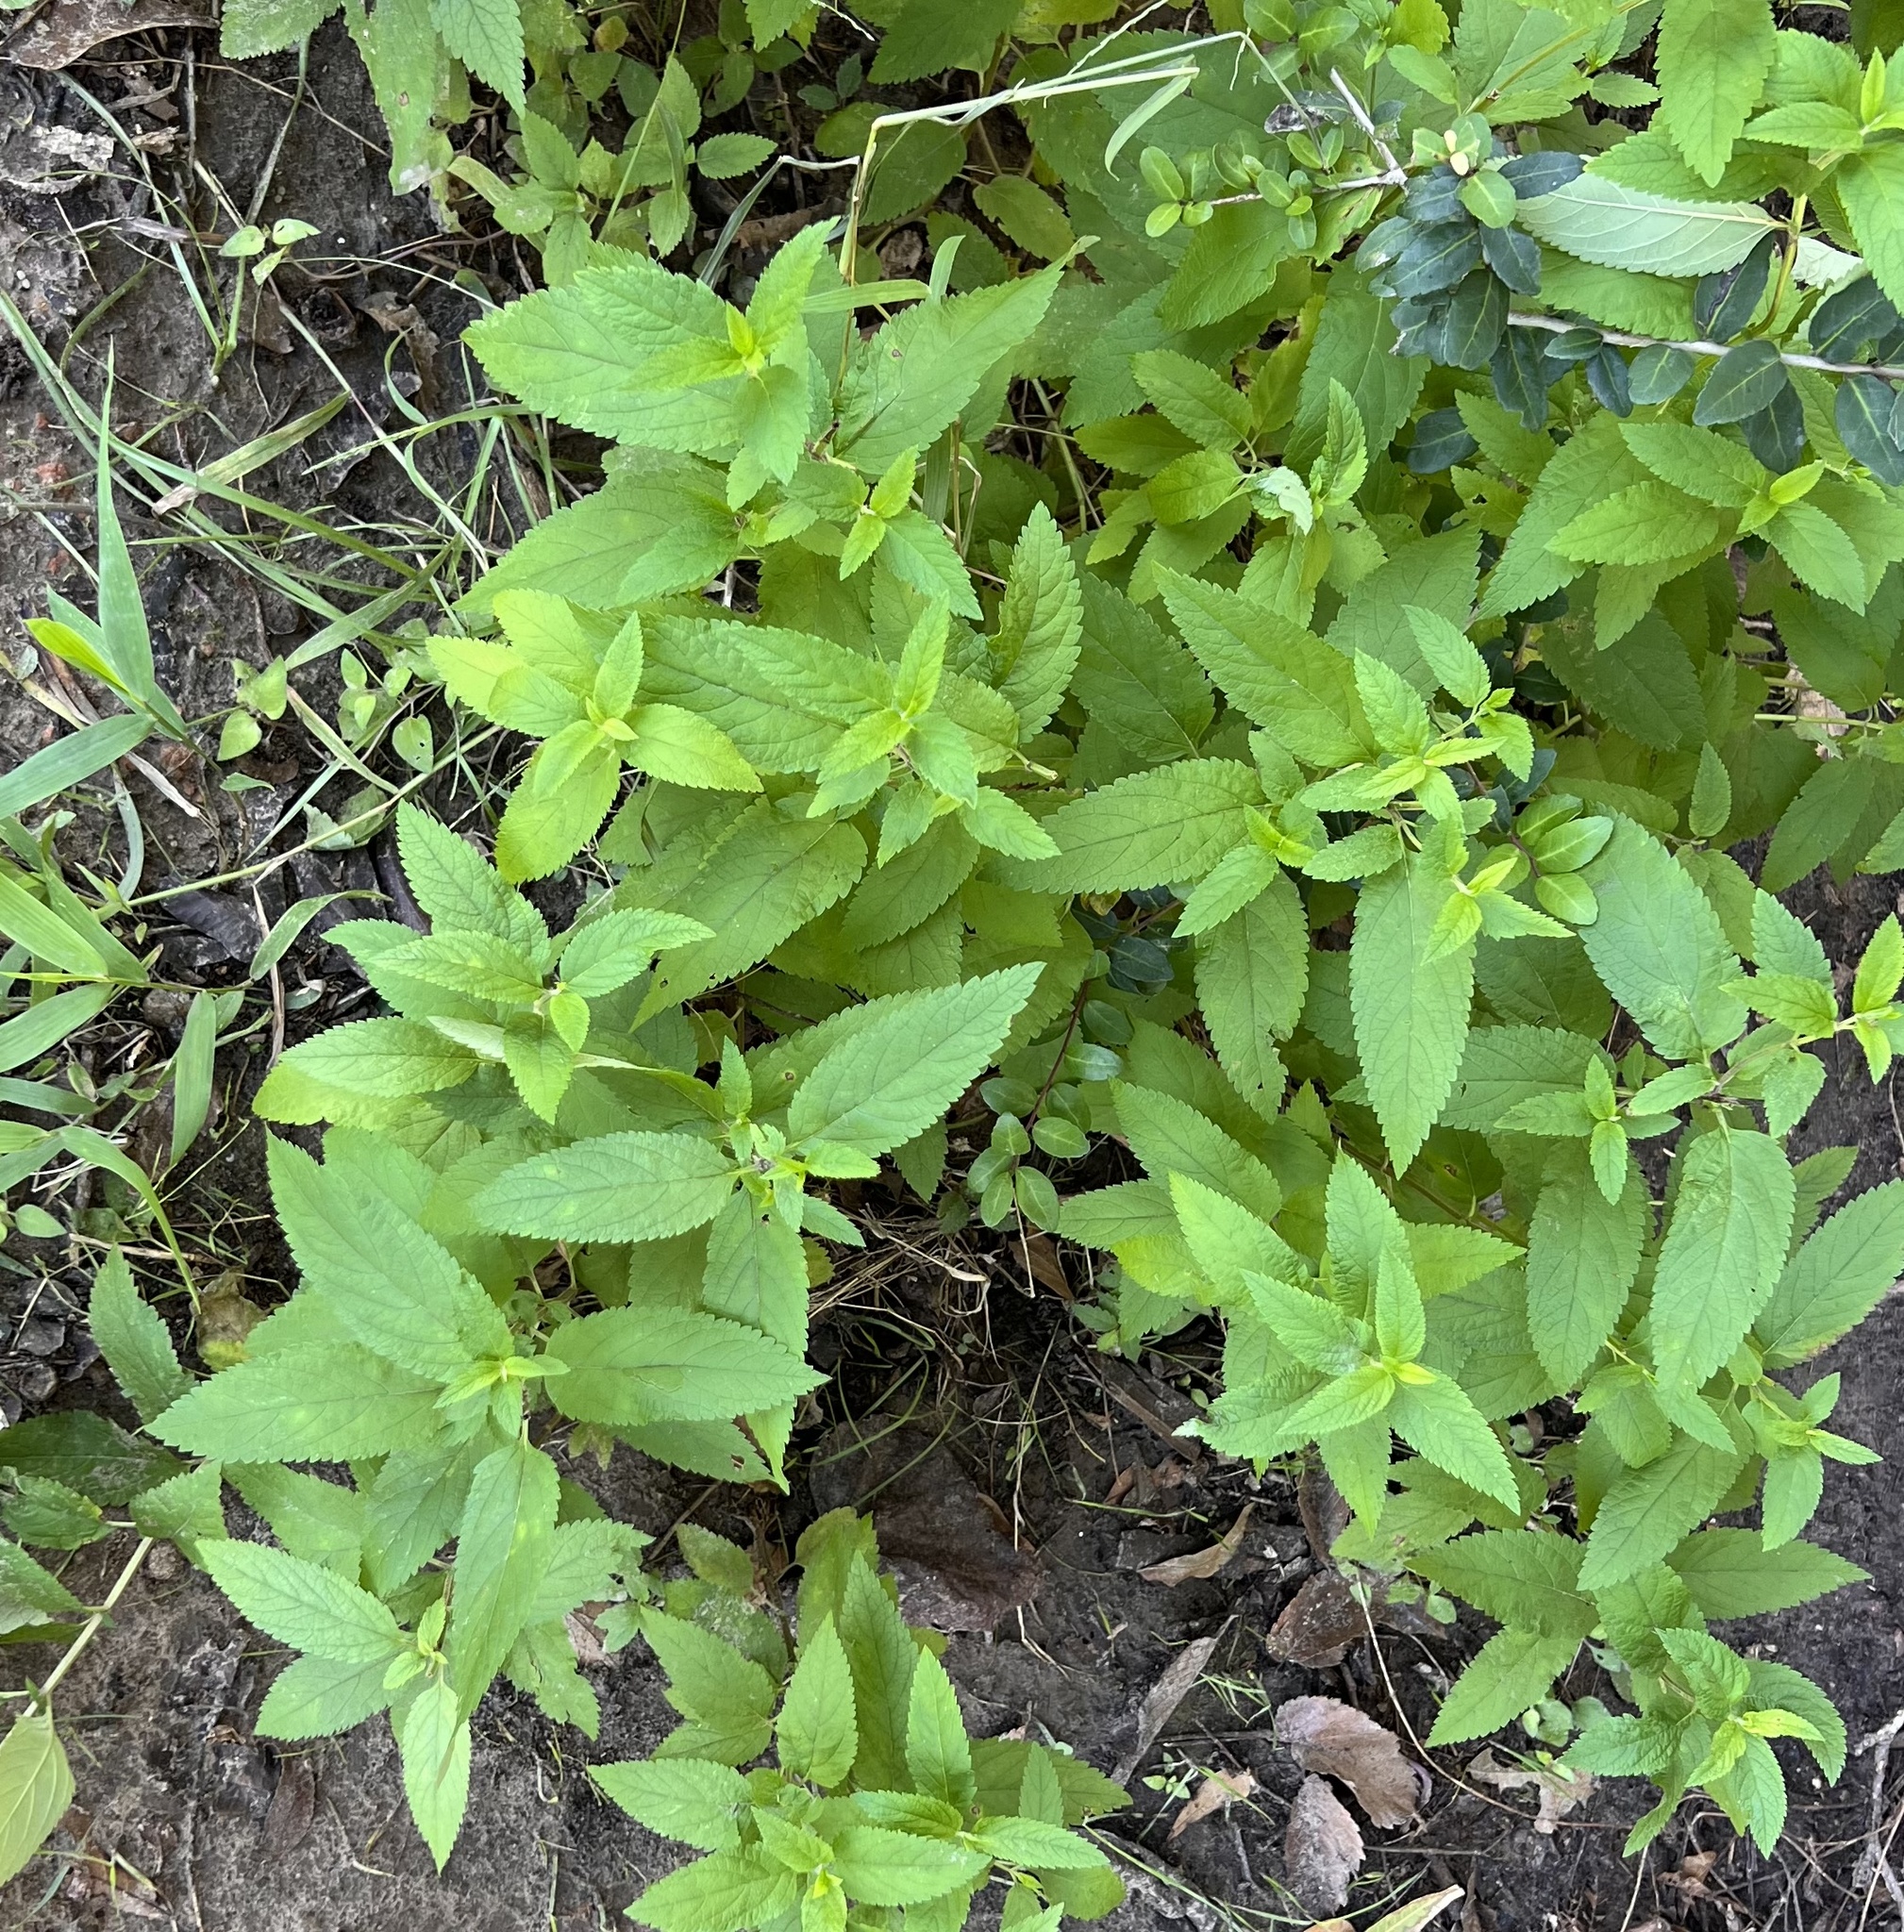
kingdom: Plantae
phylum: Tracheophyta
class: Magnoliopsida
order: Lamiales
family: Lamiaceae
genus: Teucrium
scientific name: Teucrium canadense
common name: American germander
